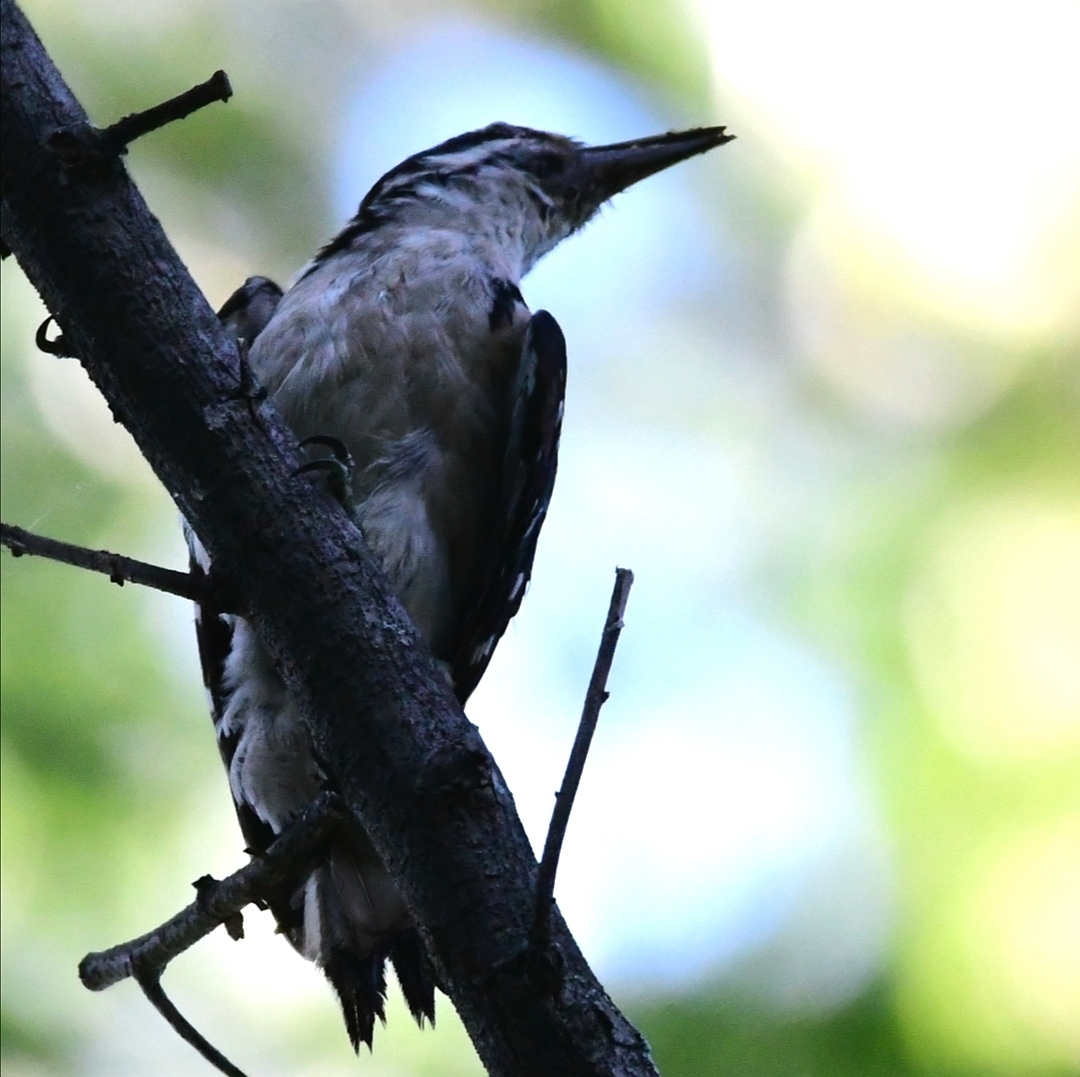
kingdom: Animalia
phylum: Chordata
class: Aves
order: Piciformes
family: Picidae
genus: Leuconotopicus
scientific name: Leuconotopicus villosus
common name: Hairy woodpecker
